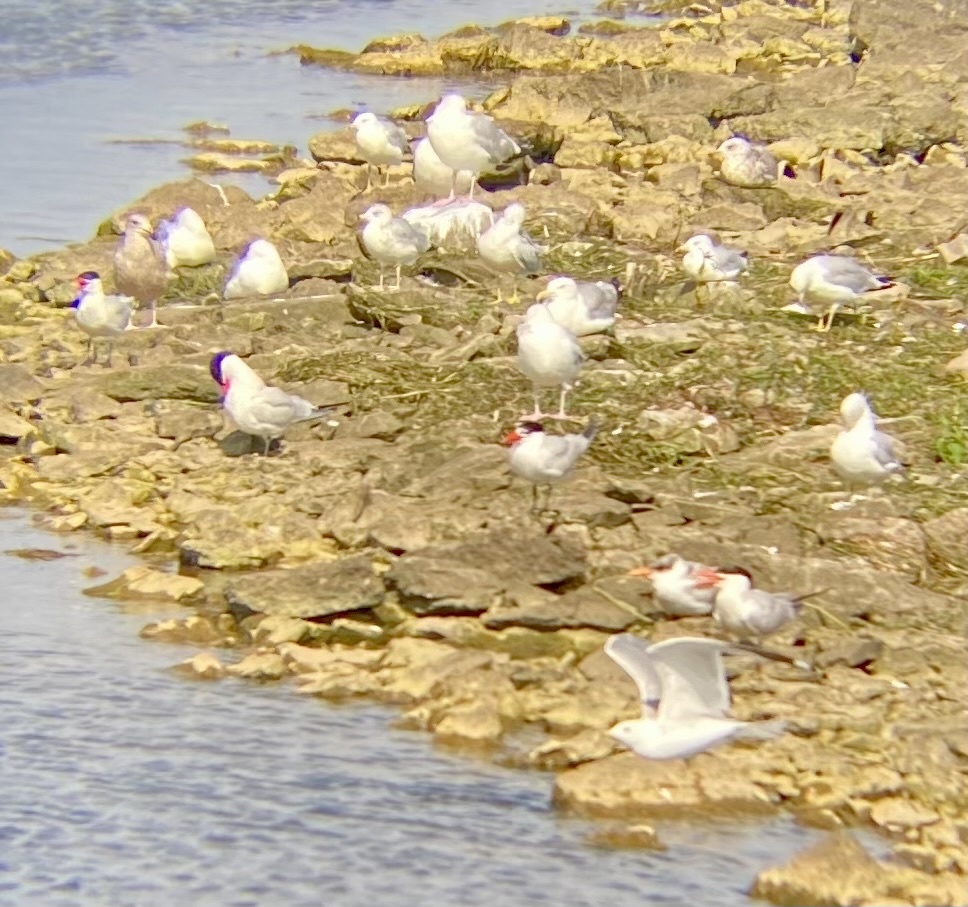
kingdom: Animalia
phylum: Chordata
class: Aves
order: Charadriiformes
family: Laridae
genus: Hydroprogne
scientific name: Hydroprogne caspia
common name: Caspian tern
